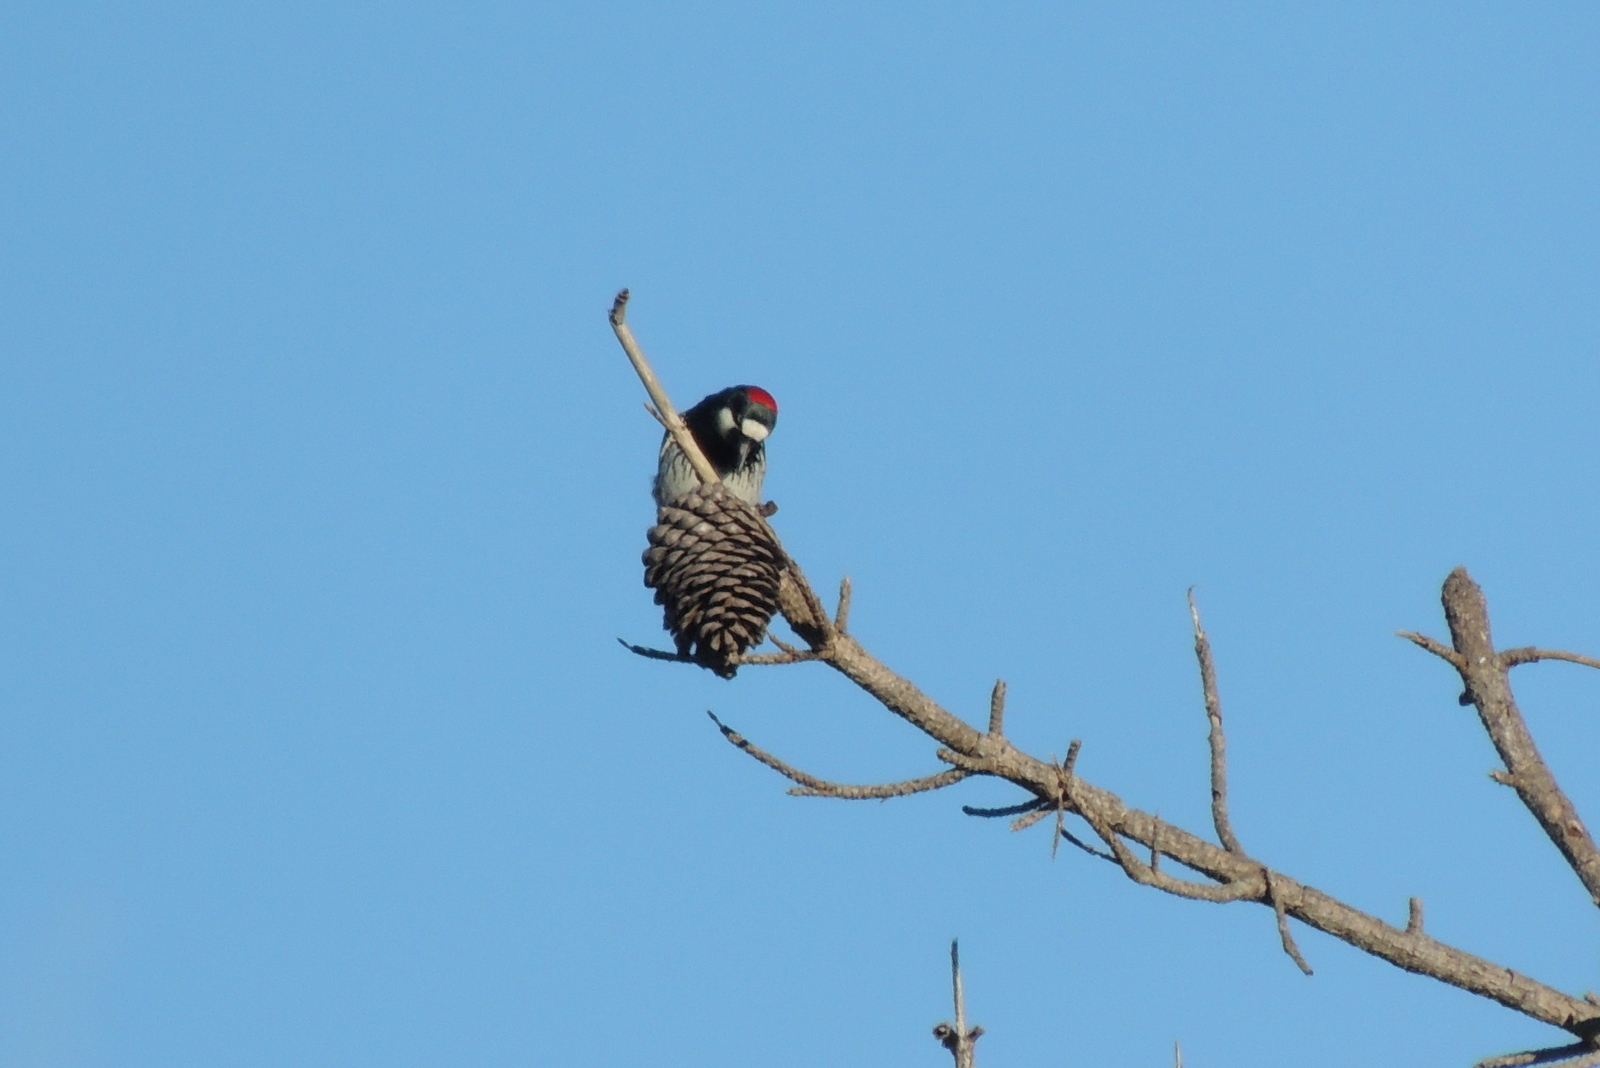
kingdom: Animalia
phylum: Chordata
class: Aves
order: Piciformes
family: Picidae
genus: Melanerpes
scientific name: Melanerpes formicivorus
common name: Acorn woodpecker
